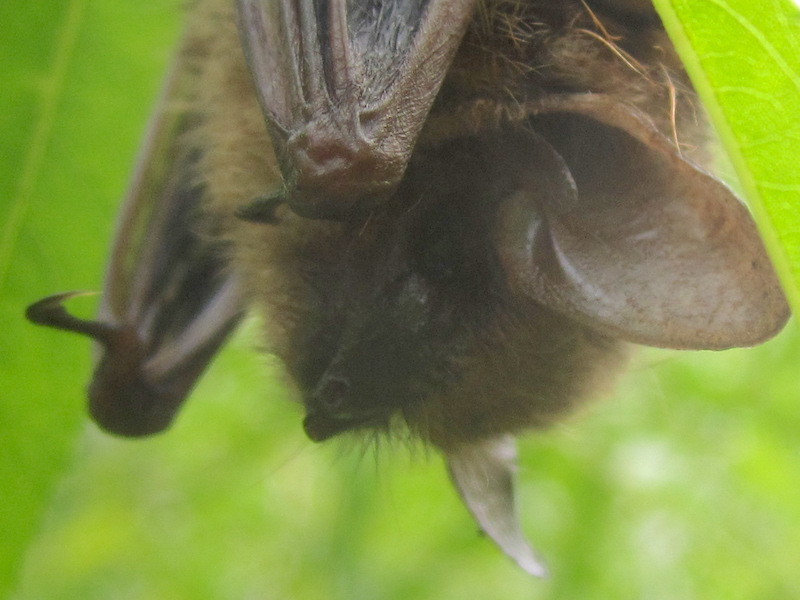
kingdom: Animalia
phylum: Chordata
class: Mammalia
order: Chiroptera
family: Vespertilionidae
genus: Perimyotis
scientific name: Perimyotis subflavus
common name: Eastern pipistrelle
